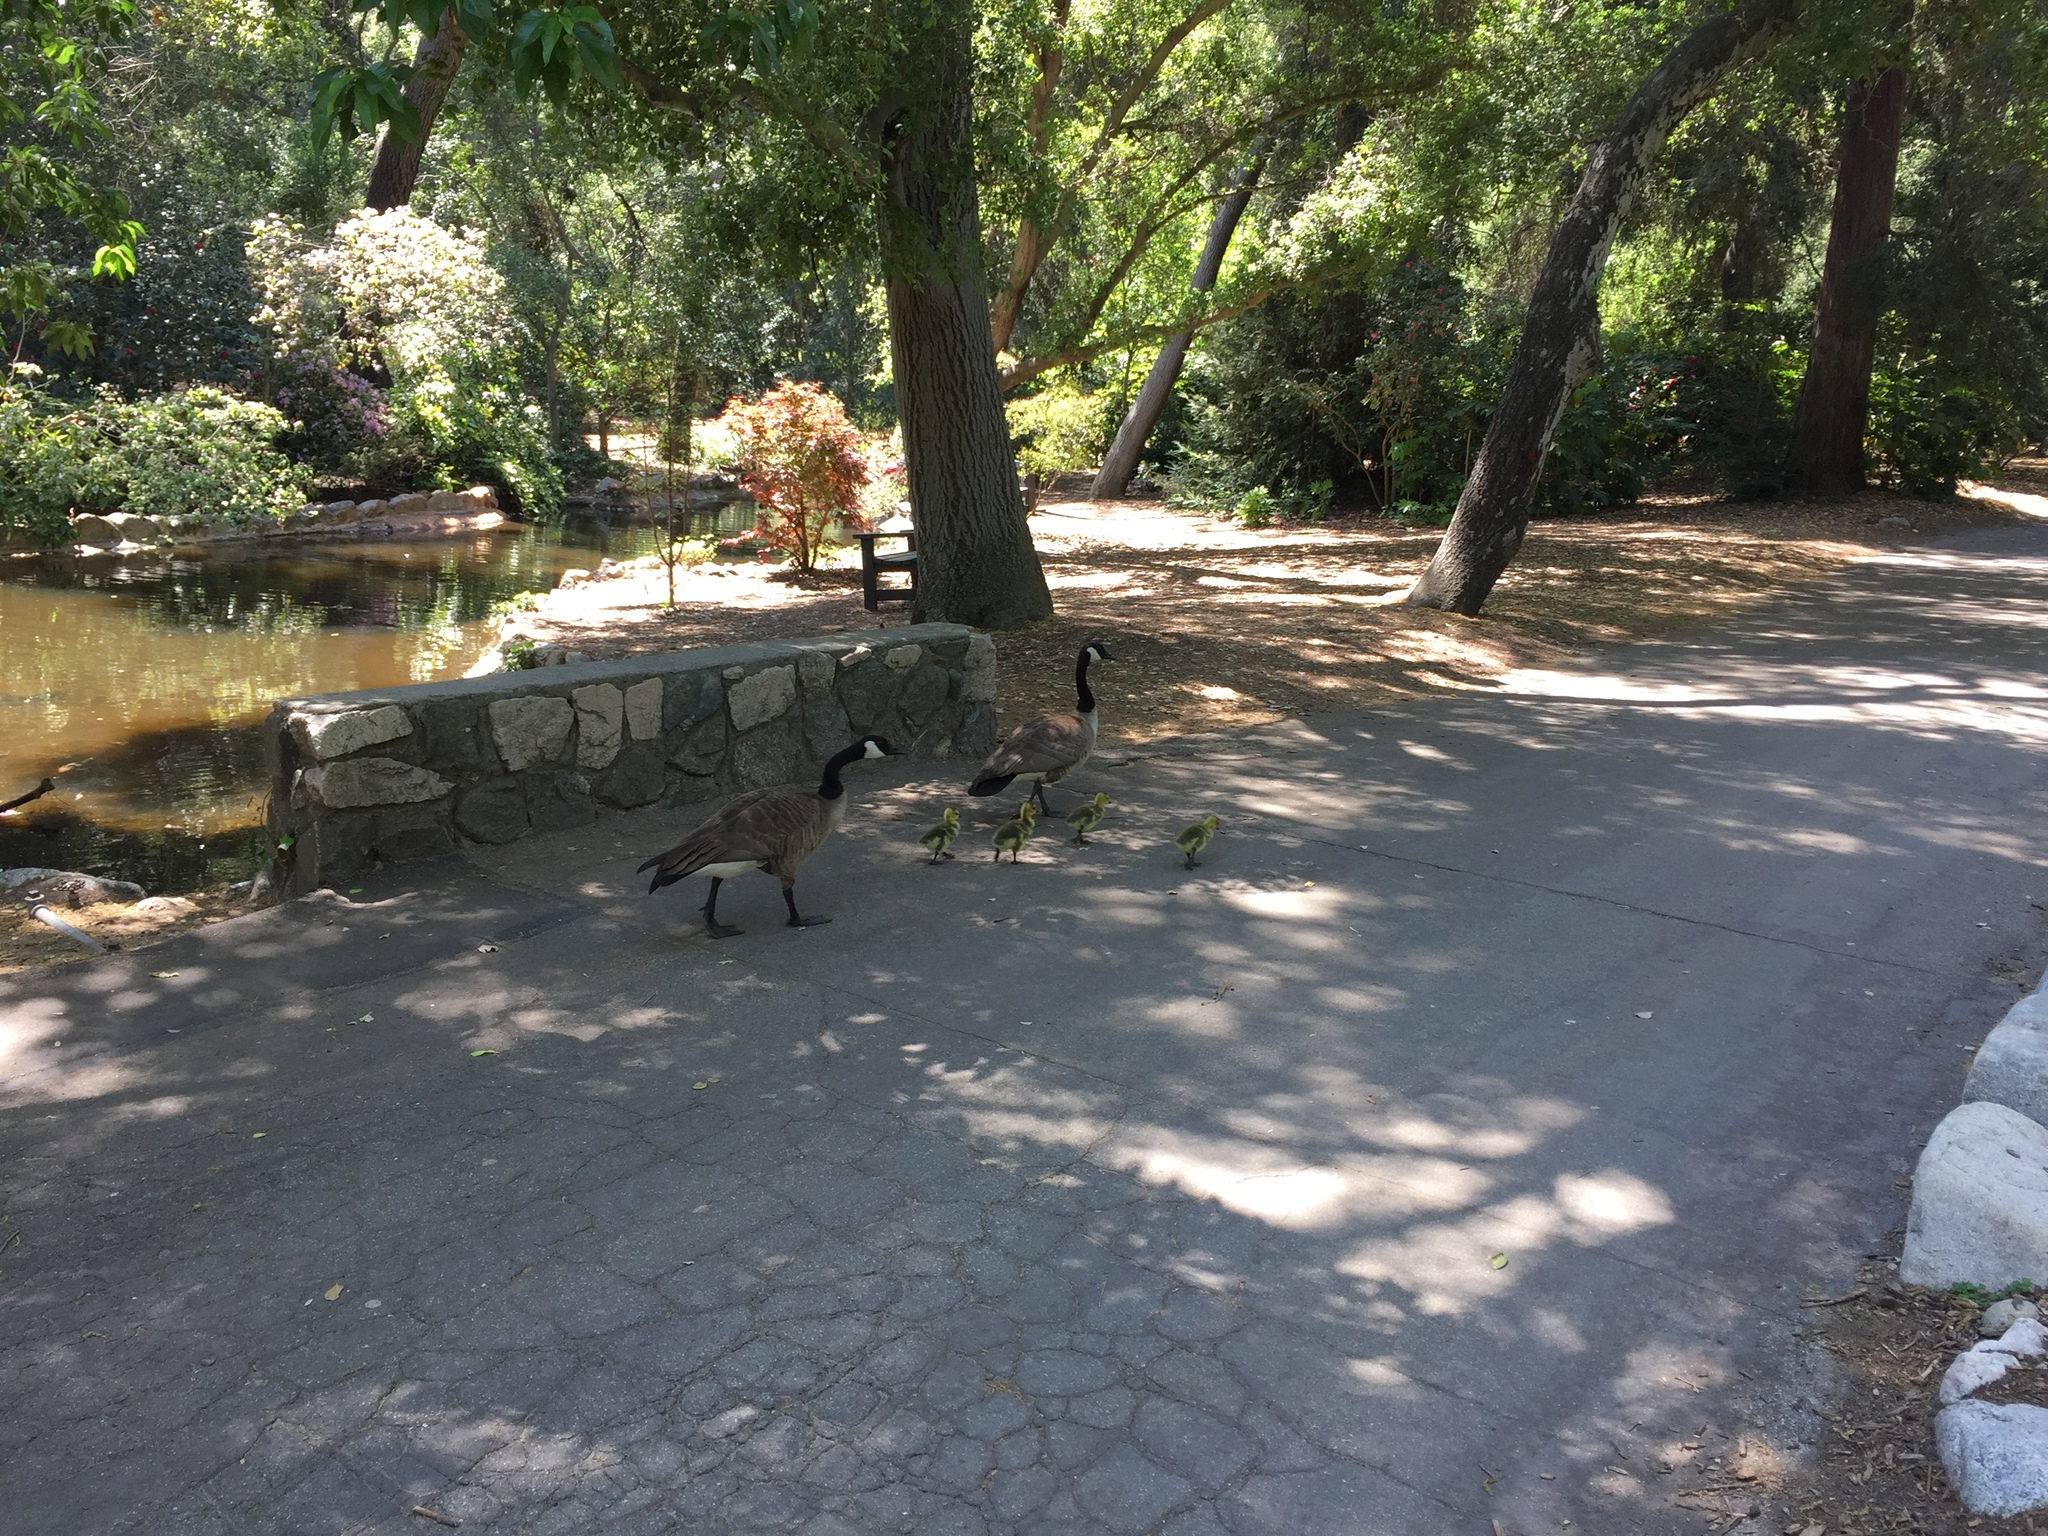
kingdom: Animalia
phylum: Chordata
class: Aves
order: Anseriformes
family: Anatidae
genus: Branta
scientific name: Branta canadensis
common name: Canada goose
